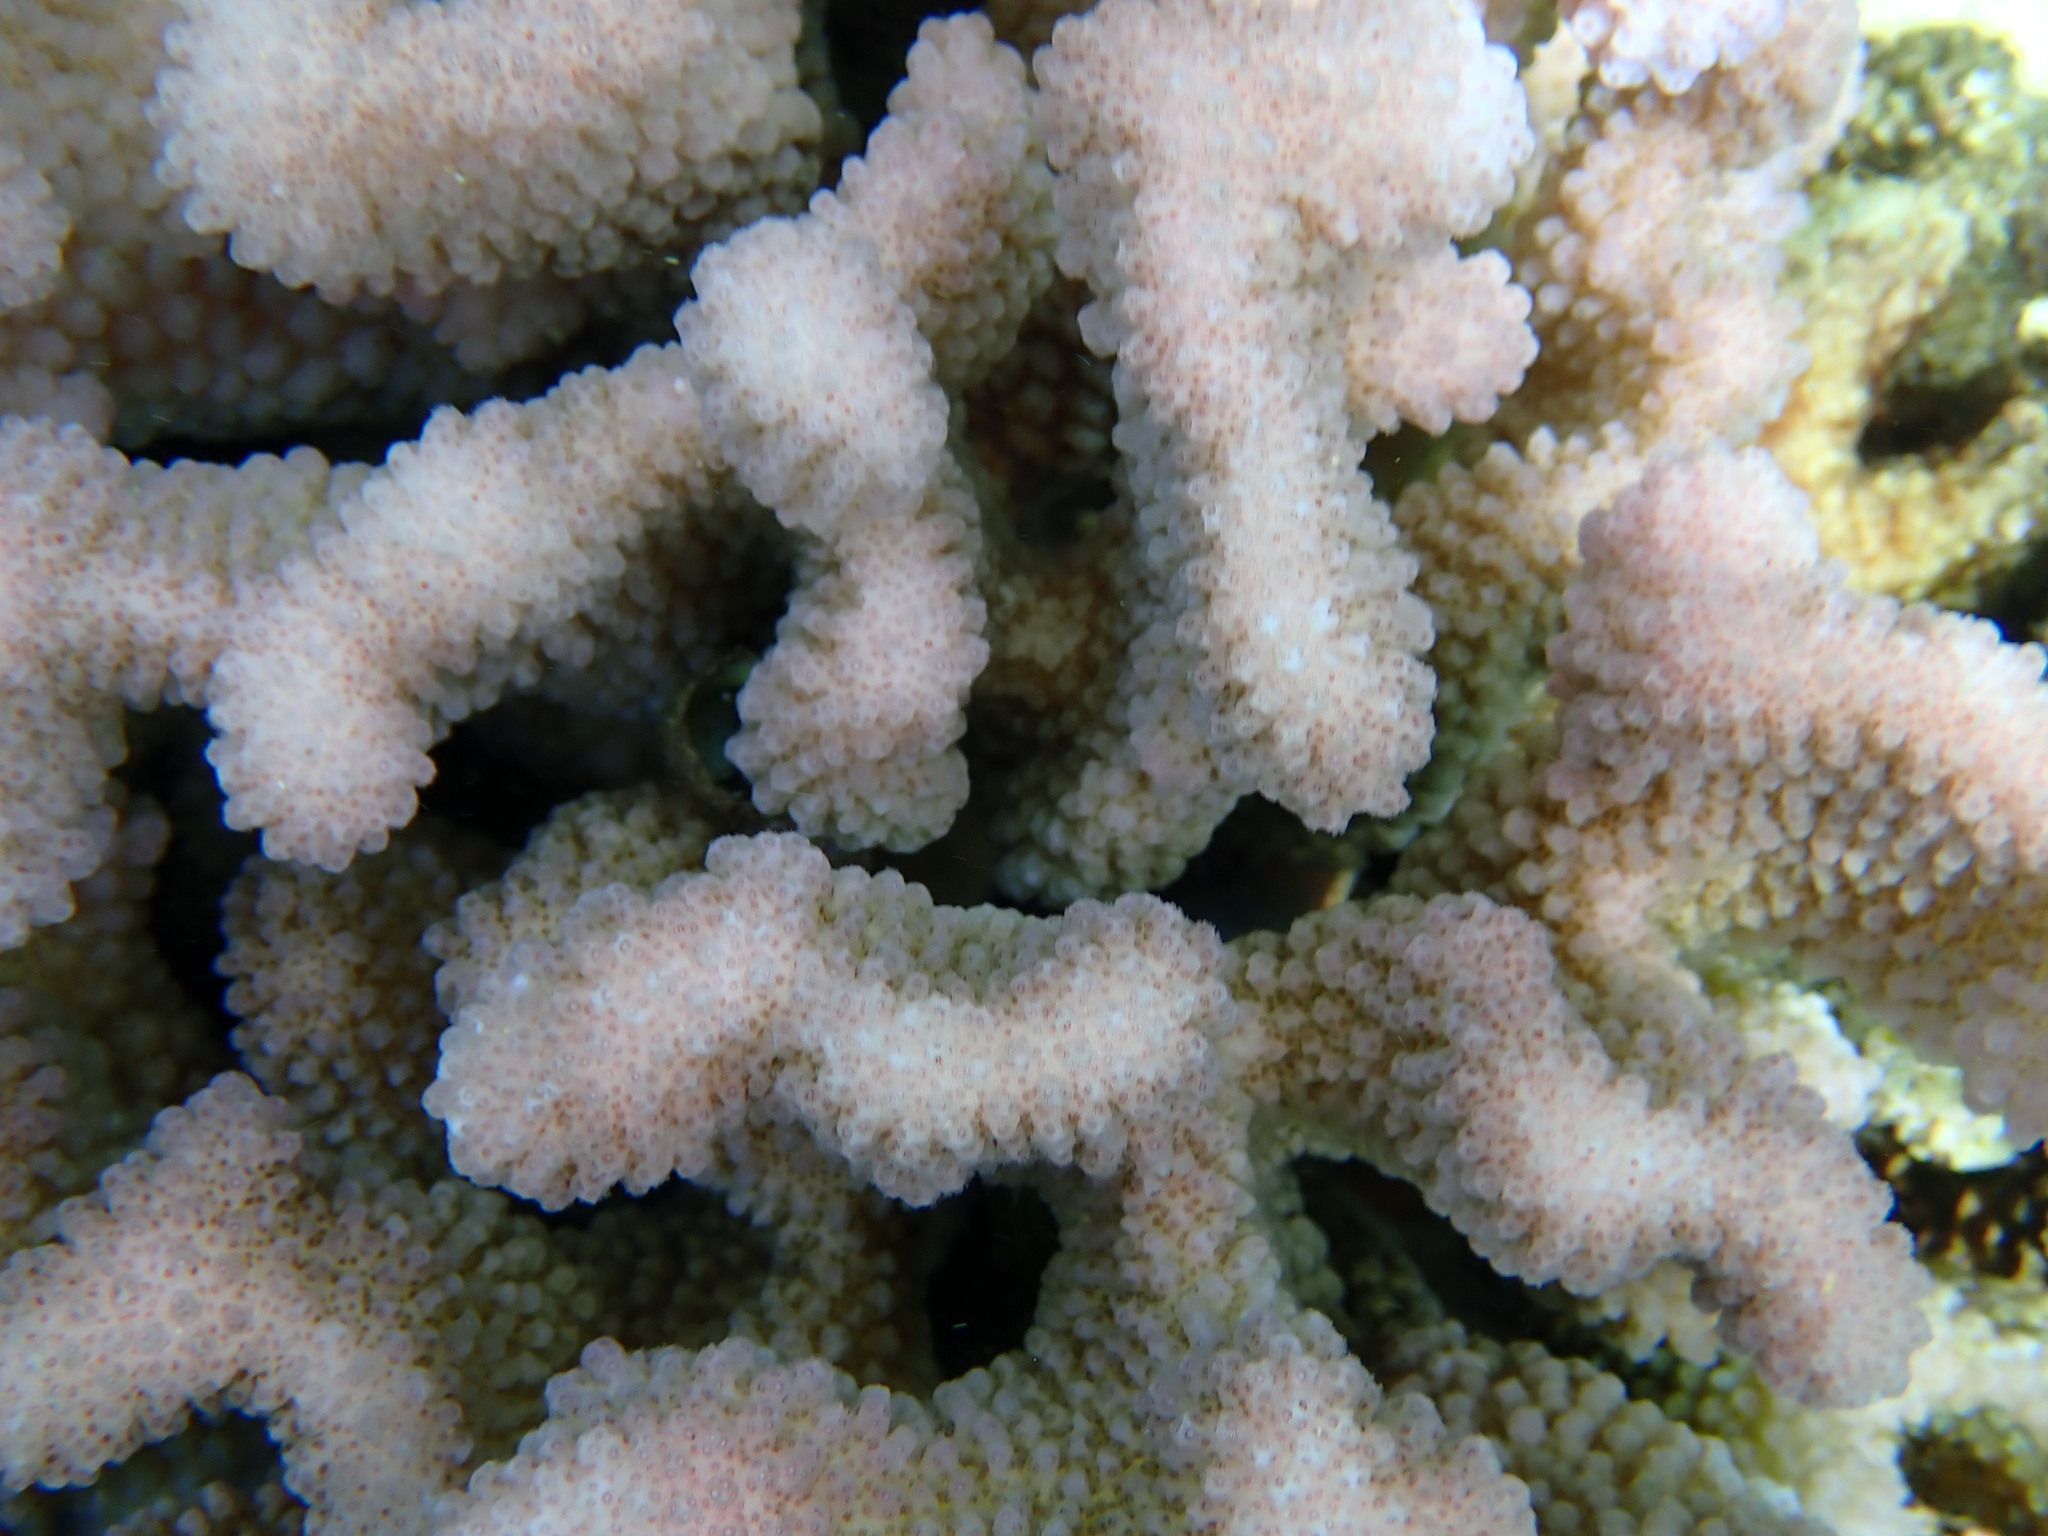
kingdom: Animalia
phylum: Cnidaria
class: Anthozoa
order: Scleractinia
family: Pocilloporidae
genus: Pocillopora
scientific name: Pocillopora meandrina
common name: Cauliflower coral
